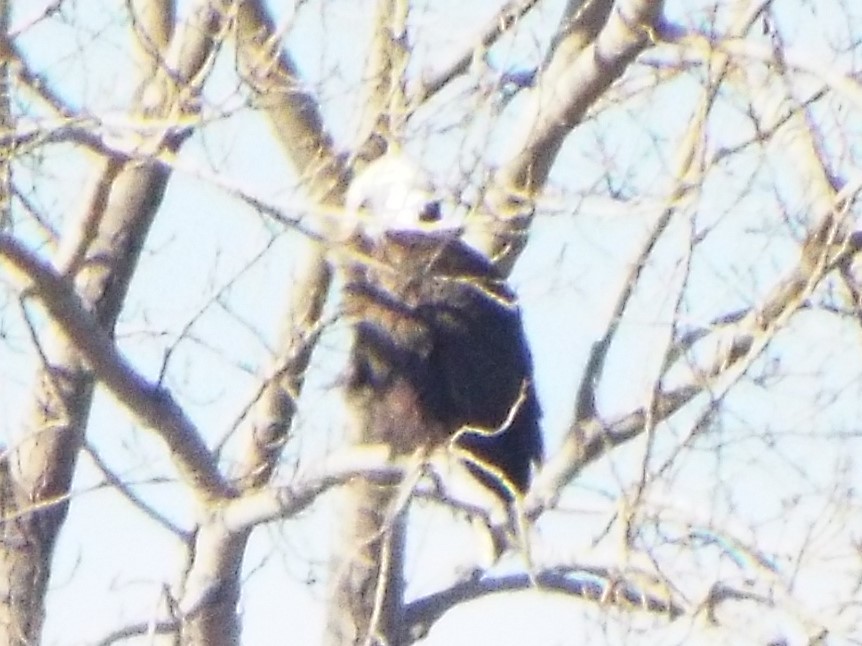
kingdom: Animalia
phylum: Chordata
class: Aves
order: Accipitriformes
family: Accipitridae
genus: Haliaeetus
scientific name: Haliaeetus leucocephalus
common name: Bald eagle
